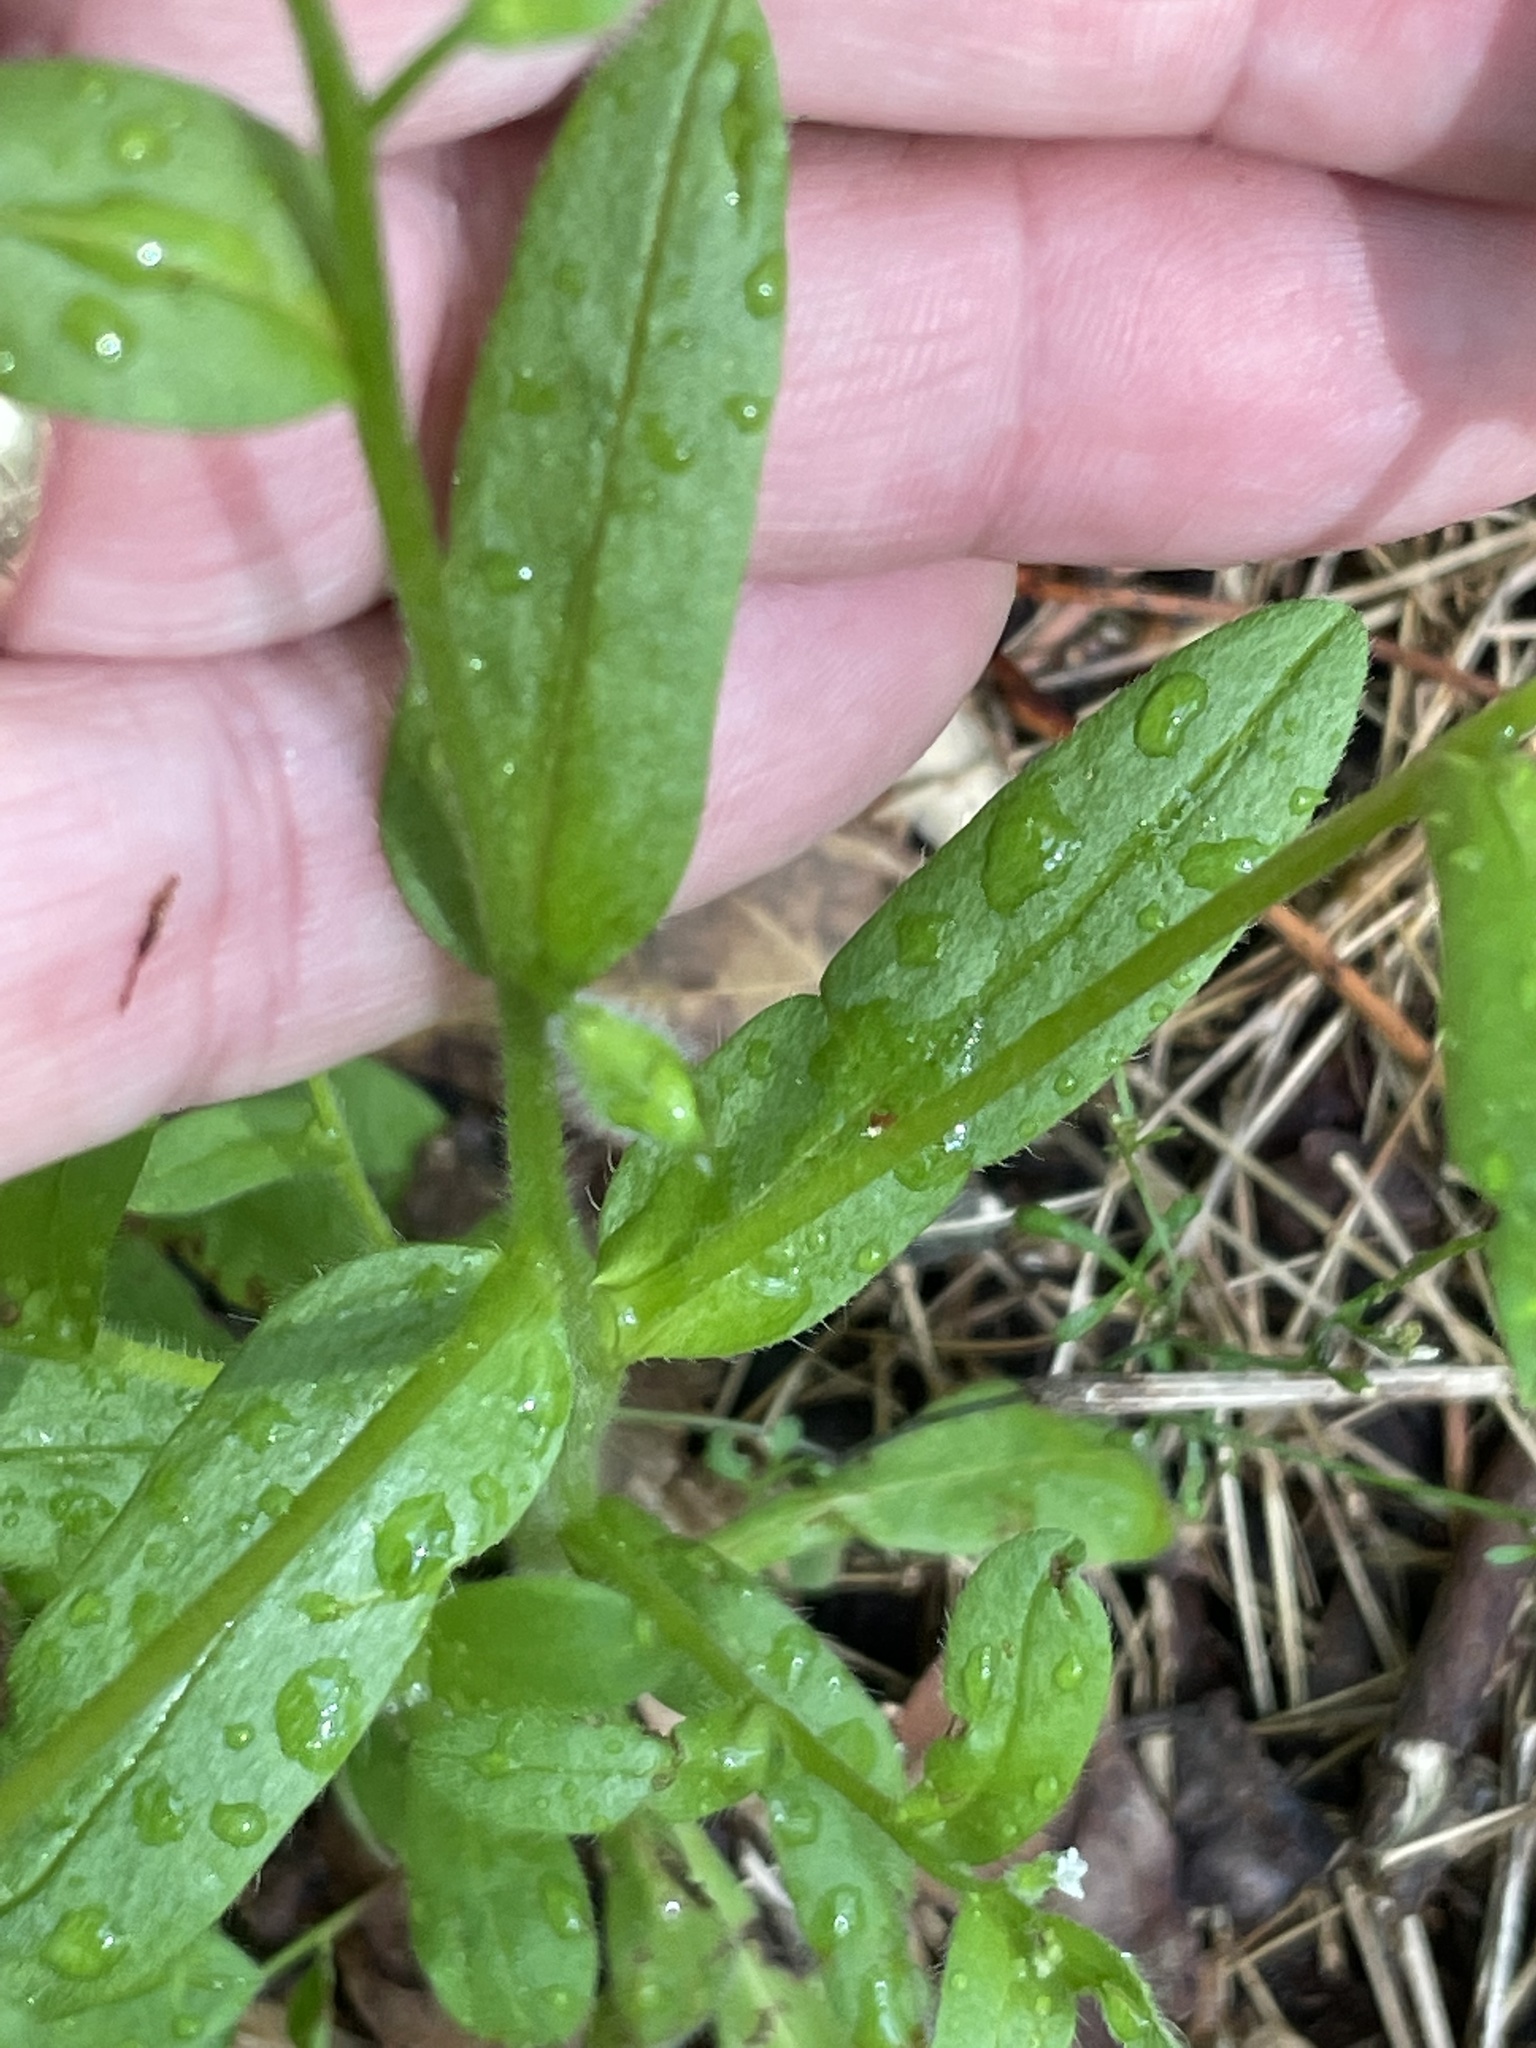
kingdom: Plantae
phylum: Tracheophyta
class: Magnoliopsida
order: Boraginales
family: Boraginaceae
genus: Myosotis
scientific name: Myosotis macrosperma
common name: Large-seed forget-me-not
